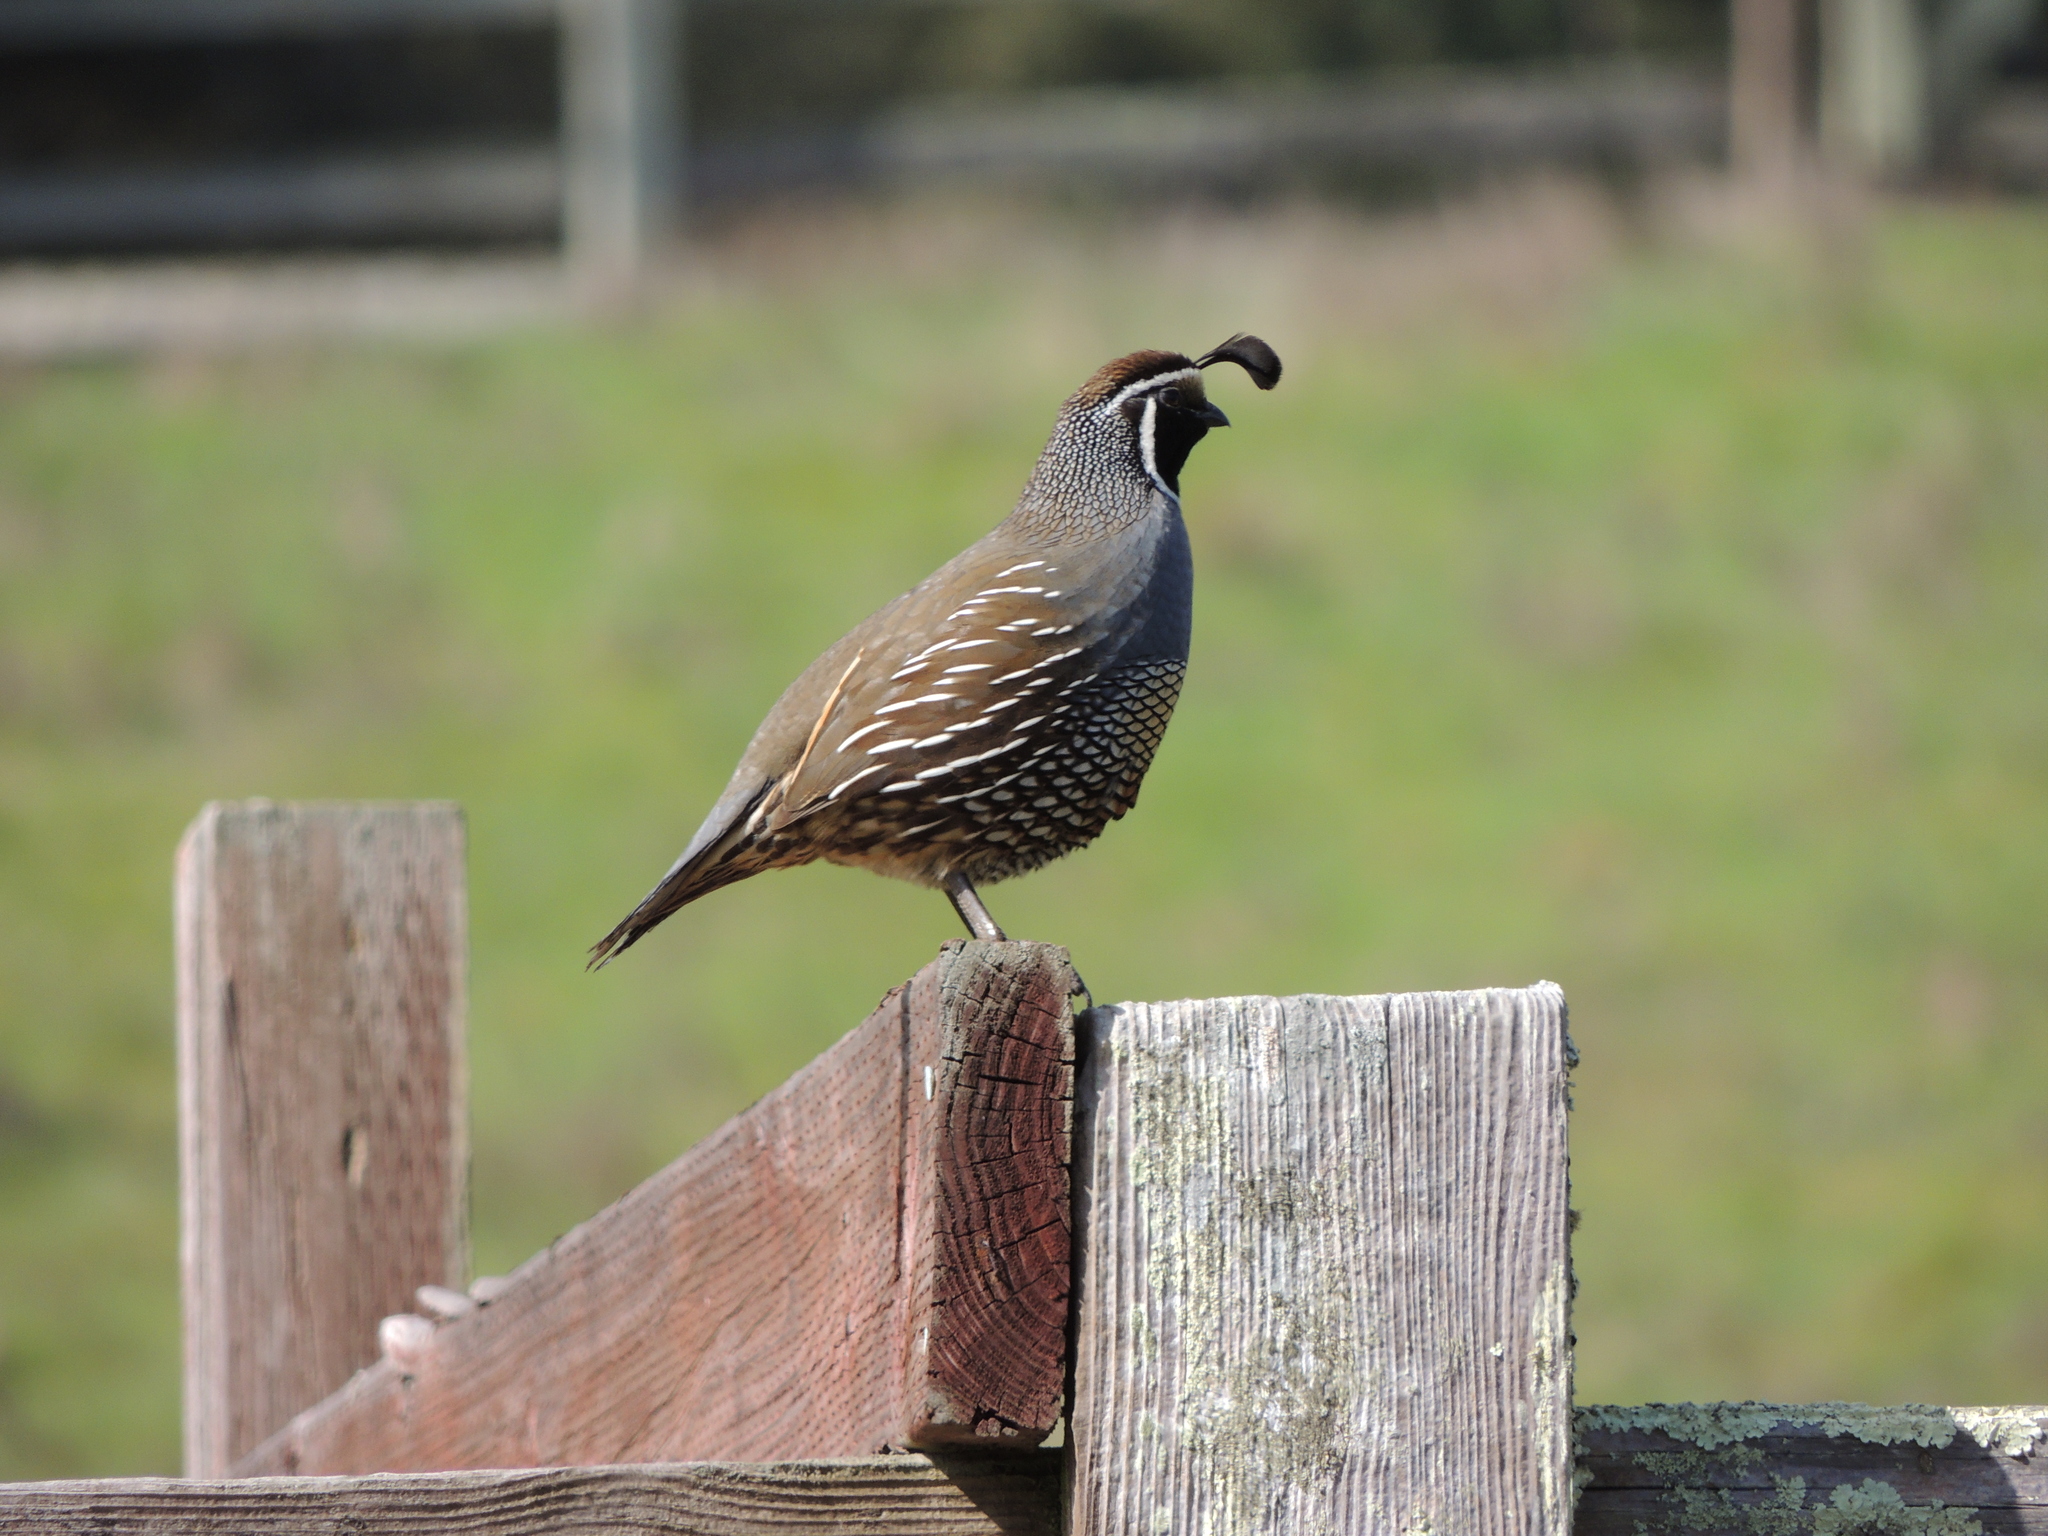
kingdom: Animalia
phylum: Chordata
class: Aves
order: Galliformes
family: Odontophoridae
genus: Callipepla
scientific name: Callipepla californica
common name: California quail
